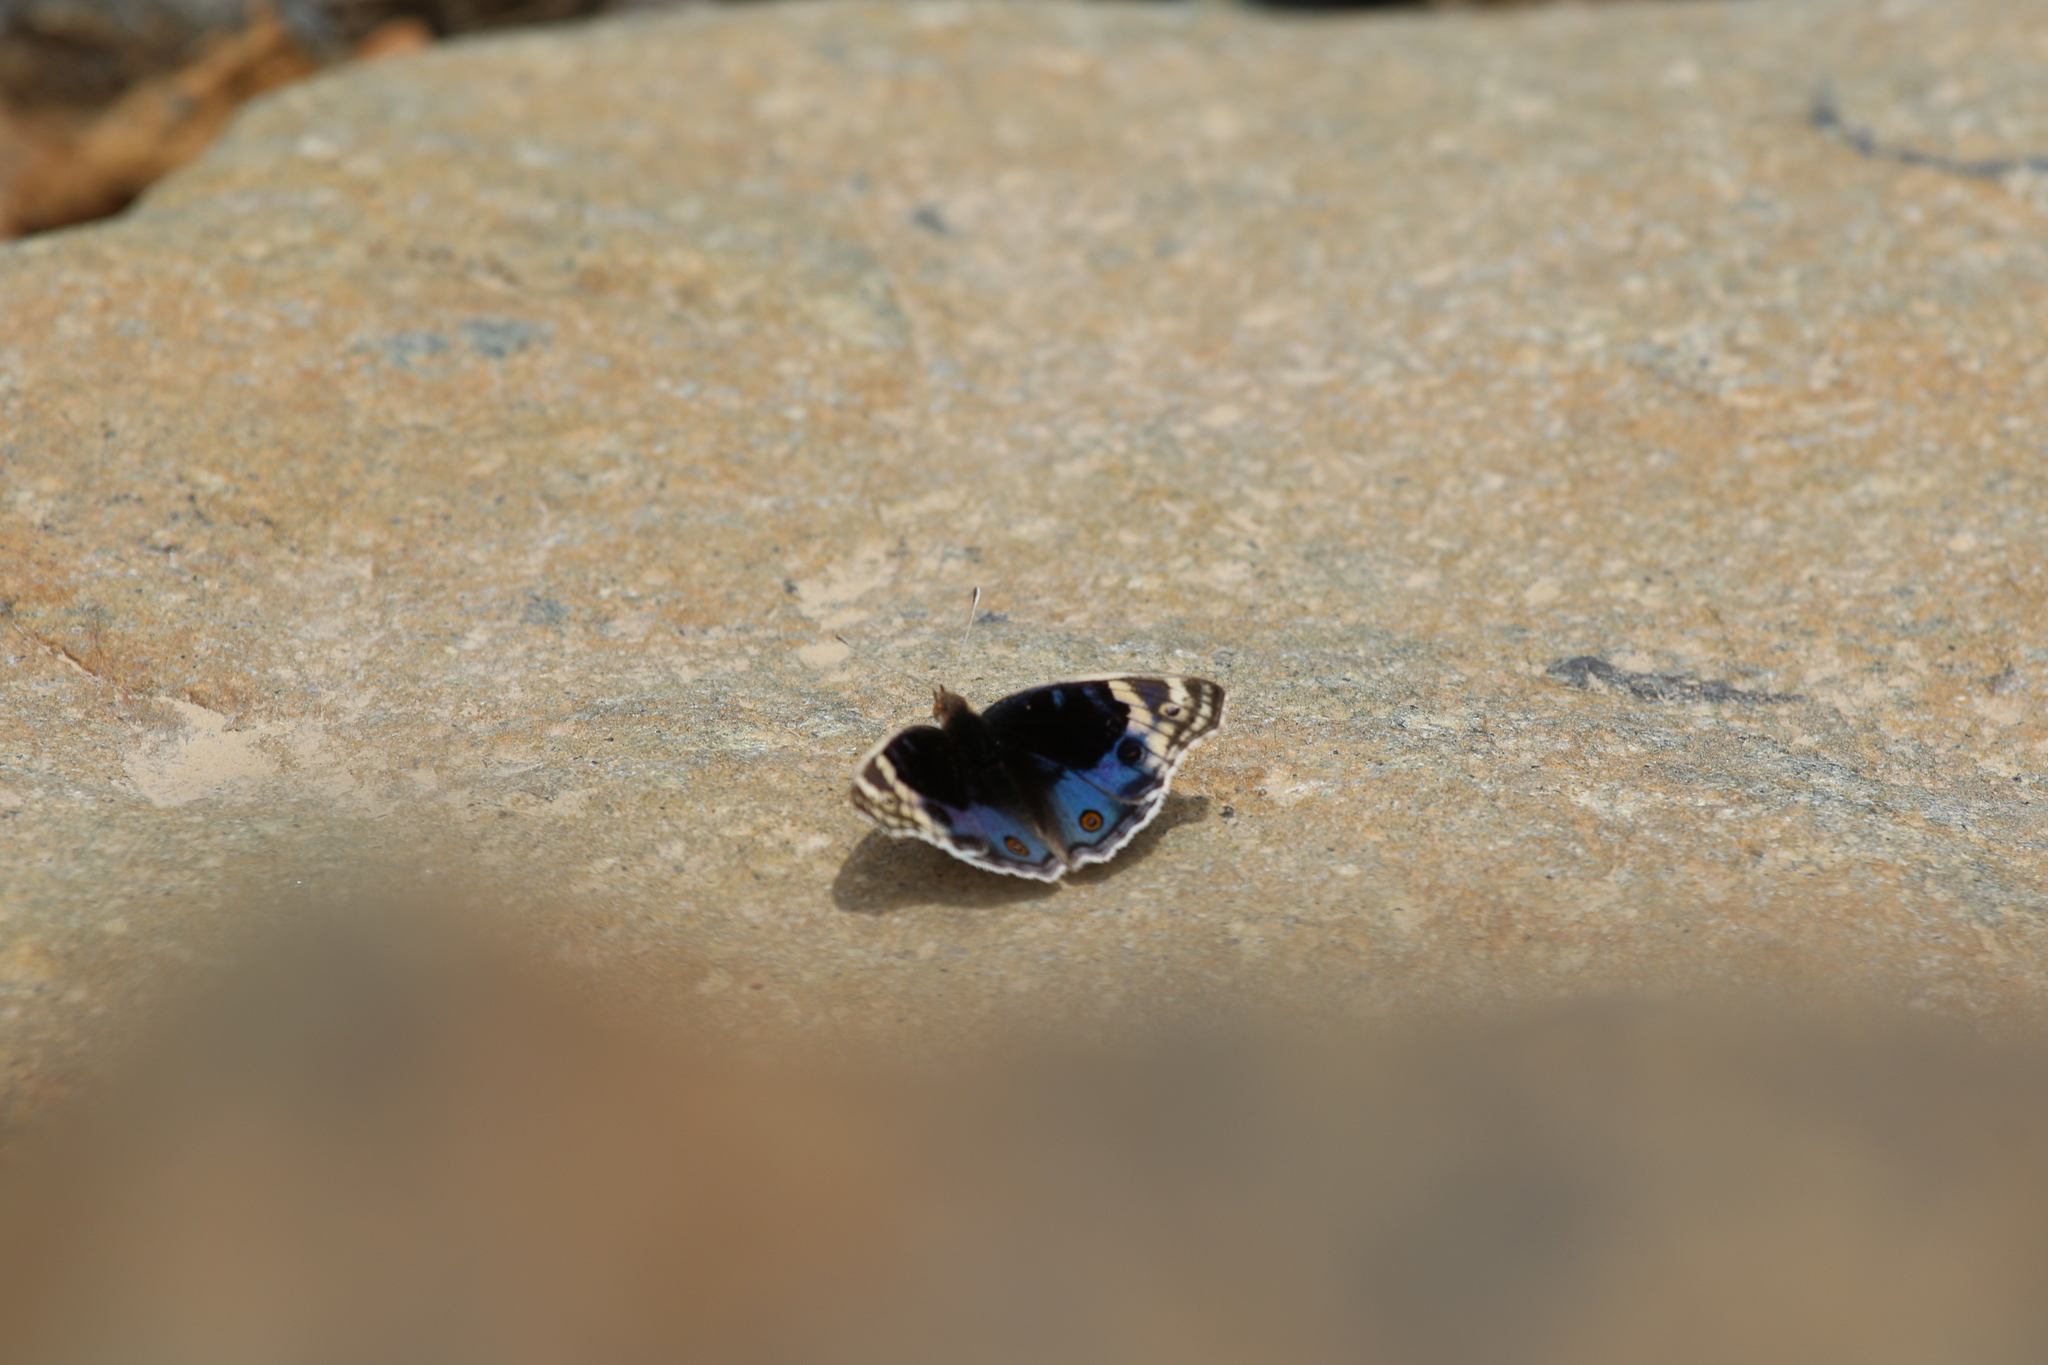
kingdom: Animalia
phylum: Arthropoda
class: Insecta
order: Lepidoptera
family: Nymphalidae
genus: Junonia
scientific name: Junonia orithya
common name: Blue pansy
